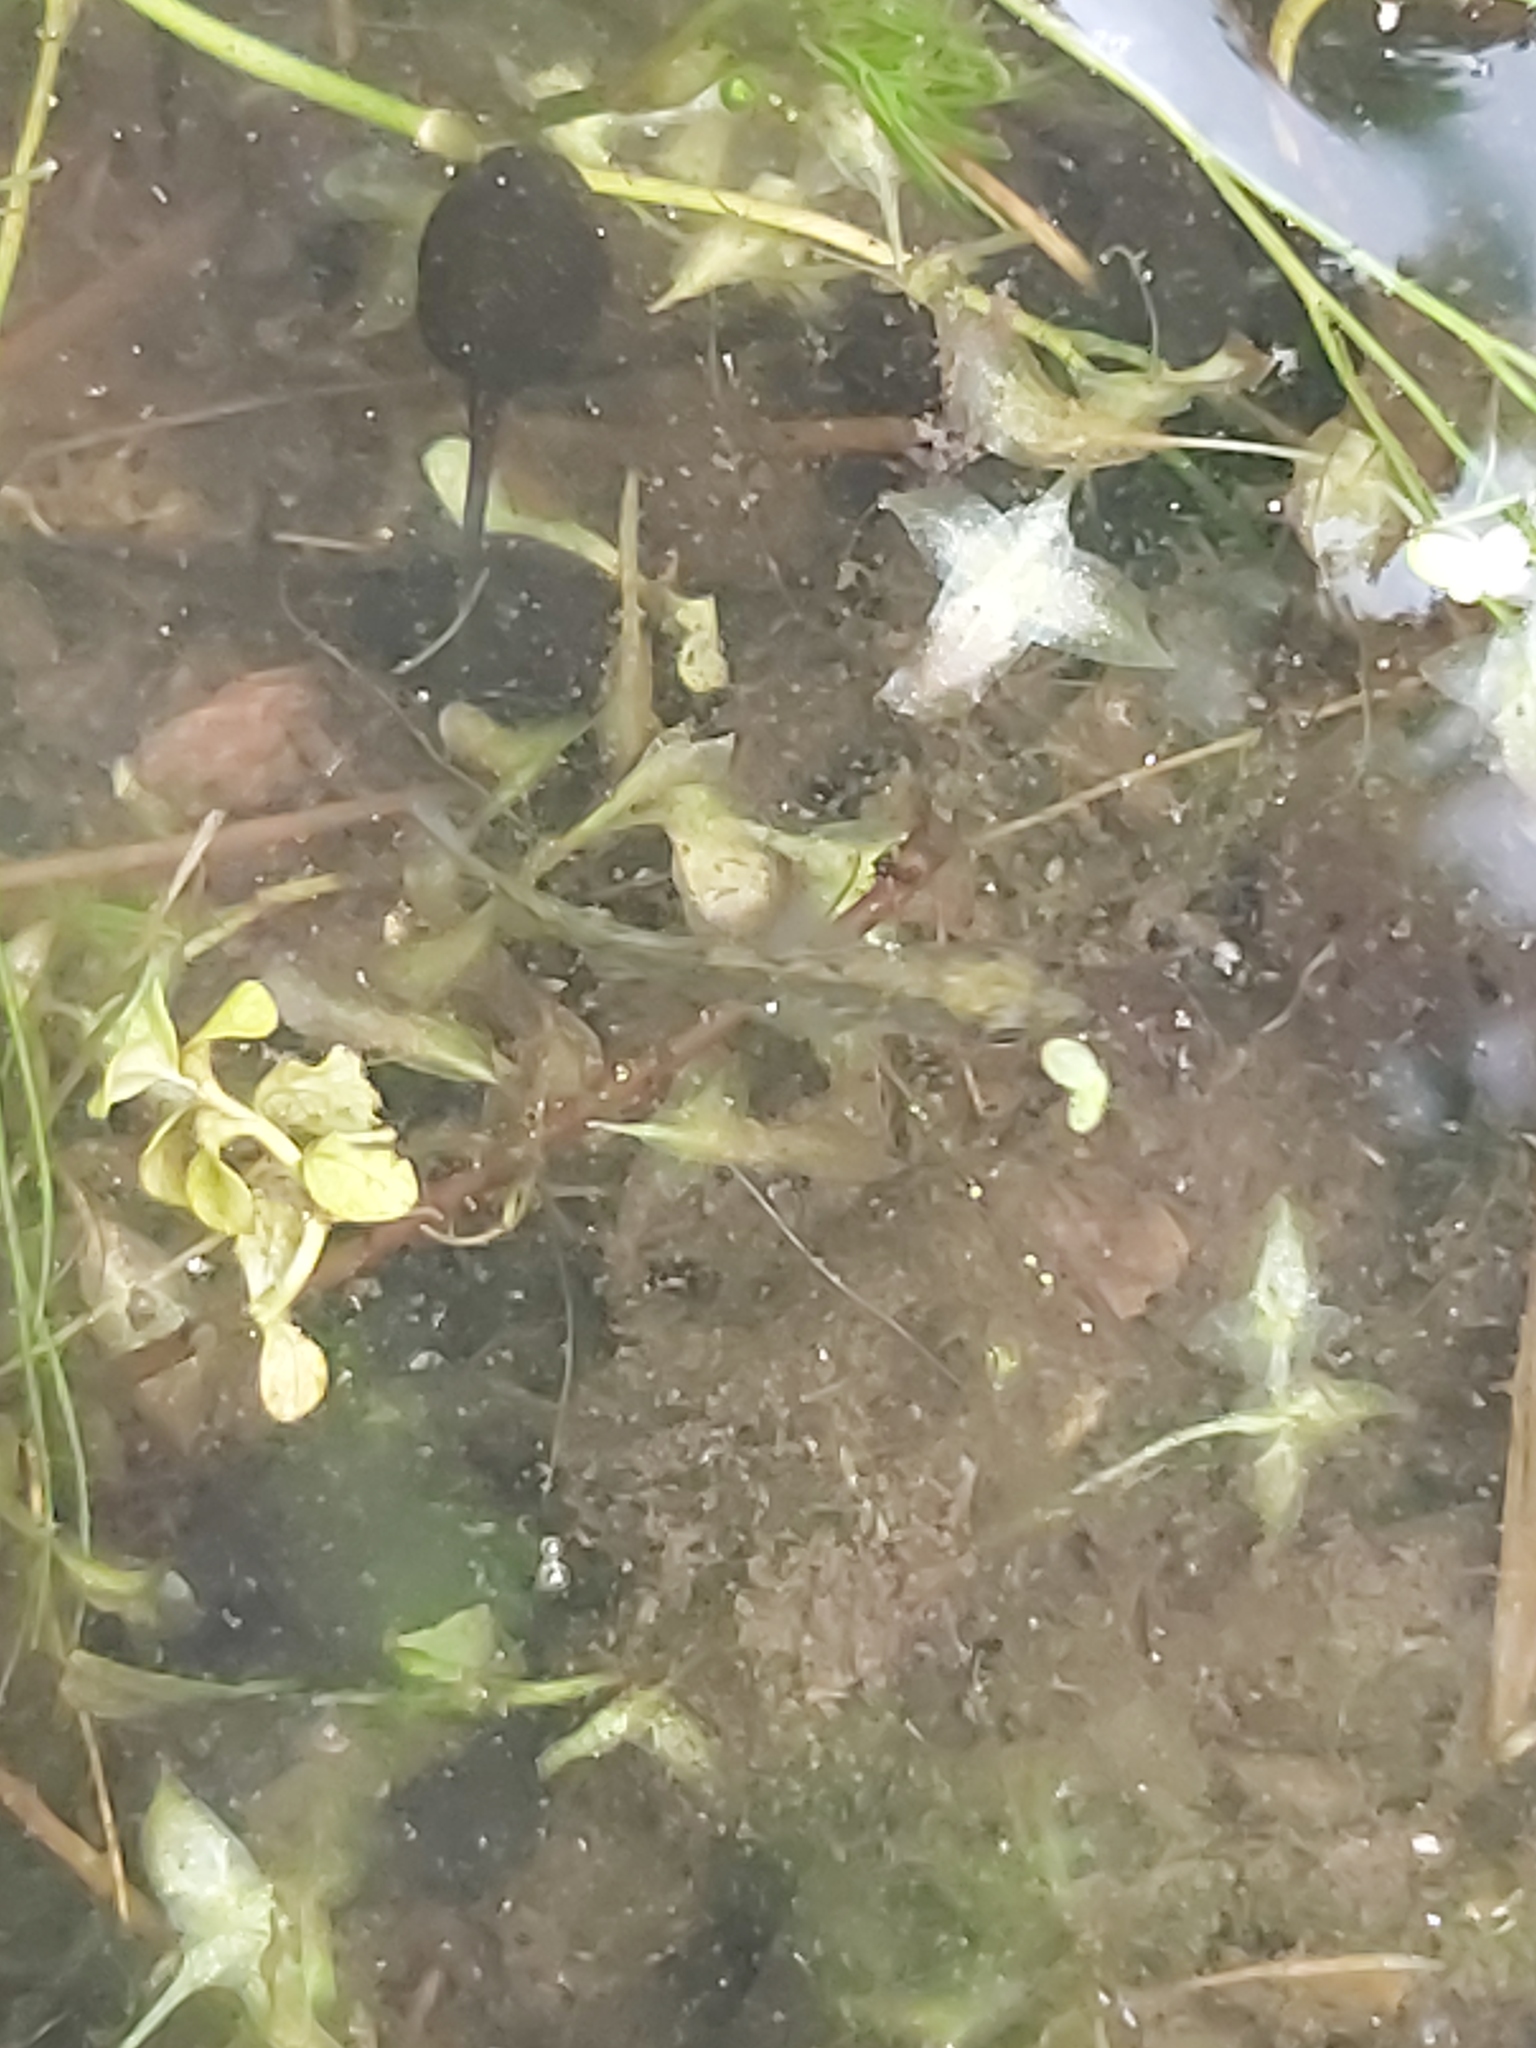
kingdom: Animalia
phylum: Chordata
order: Gasterosteiformes
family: Gasterosteidae
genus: Gasterosteus
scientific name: Gasterosteus aculeatus
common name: Three-spined stickleback
